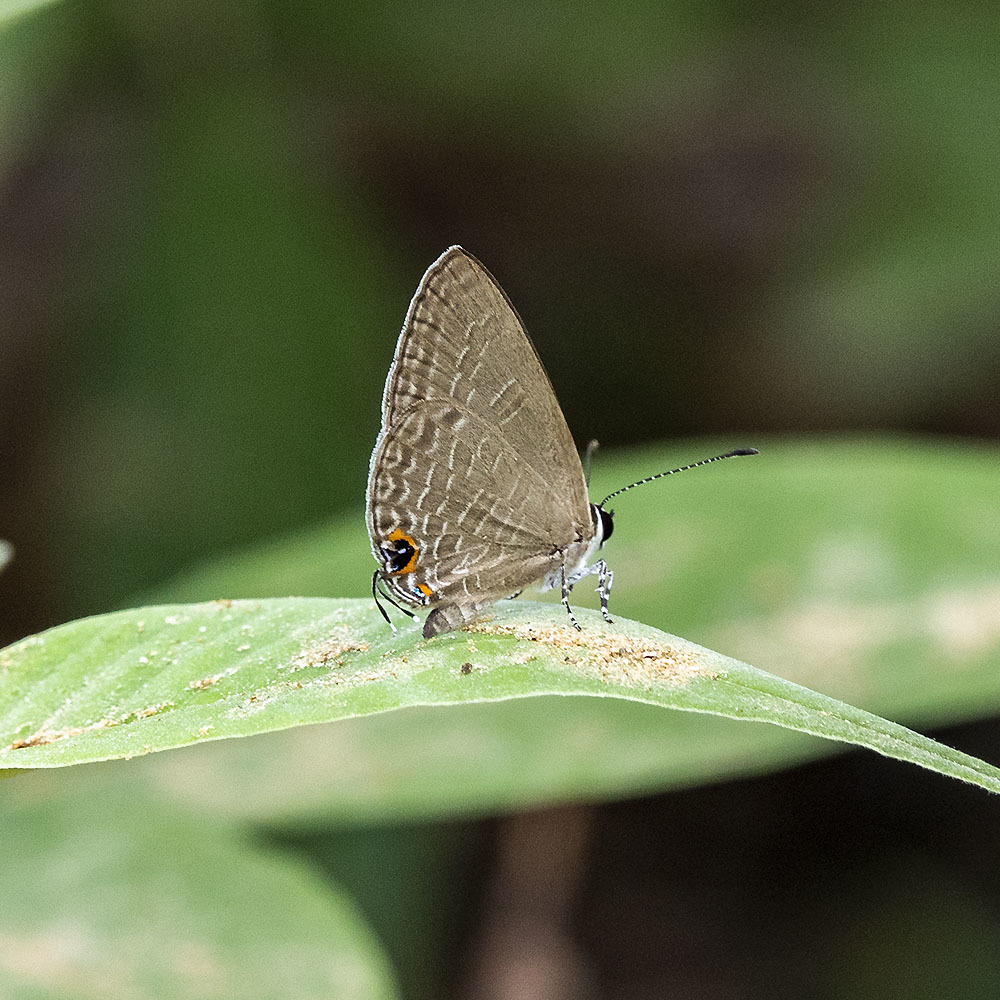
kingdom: Animalia
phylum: Arthropoda
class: Insecta
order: Lepidoptera
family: Lycaenidae
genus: Jamides
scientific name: Jamides bochus
